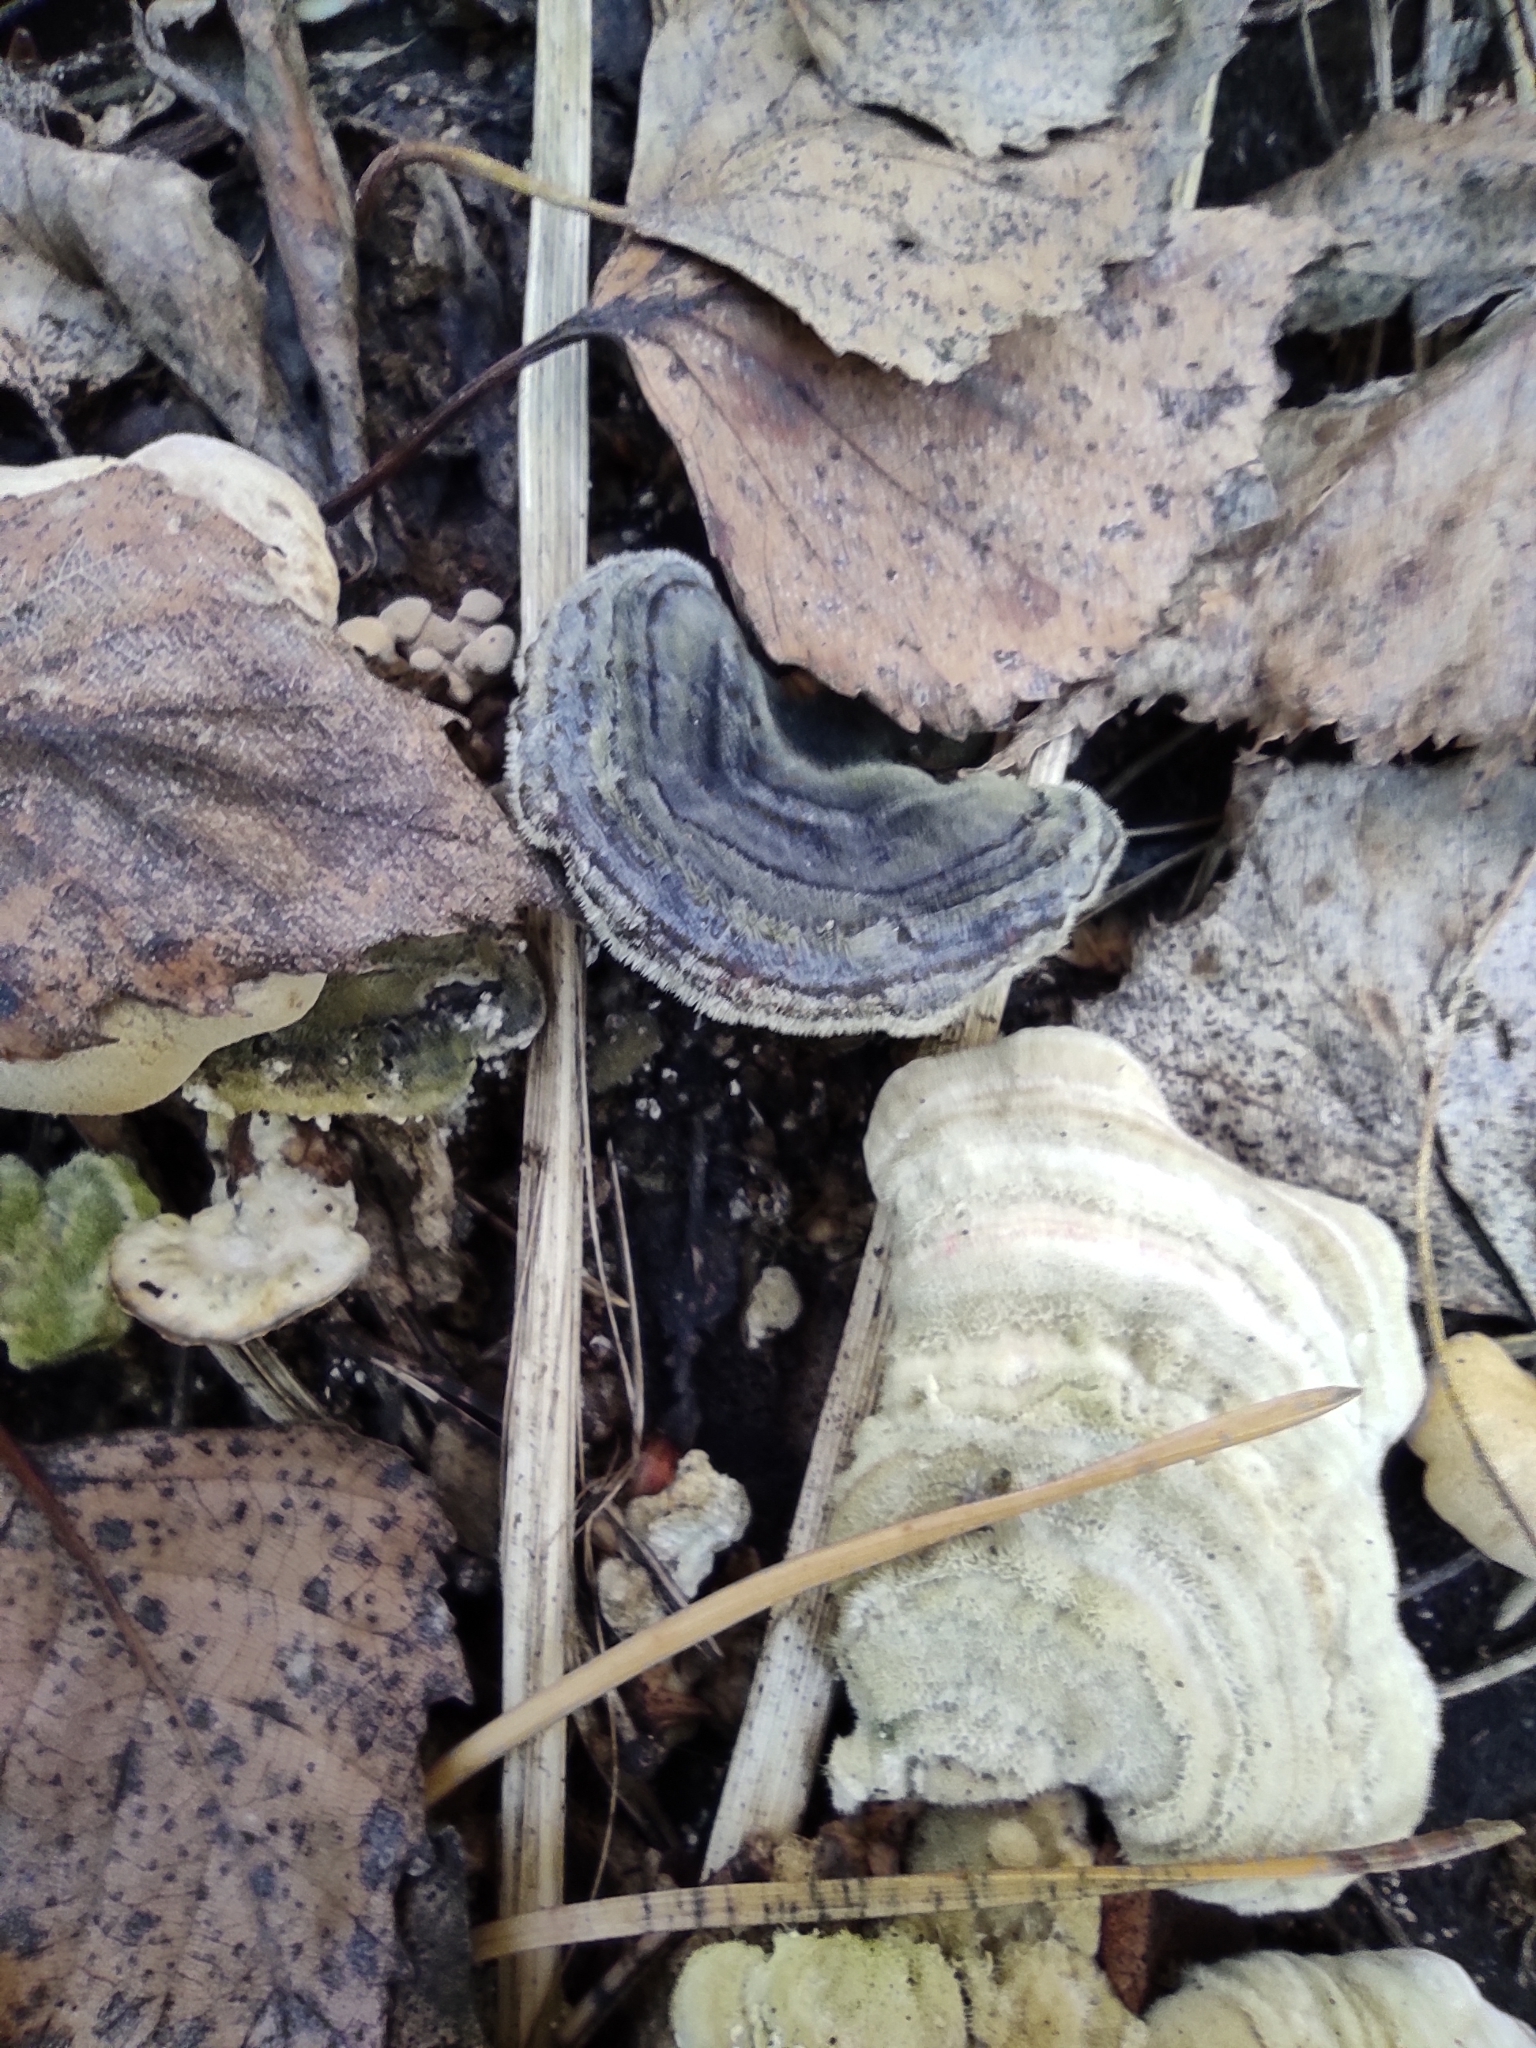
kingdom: Fungi
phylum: Basidiomycota
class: Agaricomycetes
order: Polyporales
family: Polyporaceae
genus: Trametes
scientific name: Trametes versicolor
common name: Turkeytail
